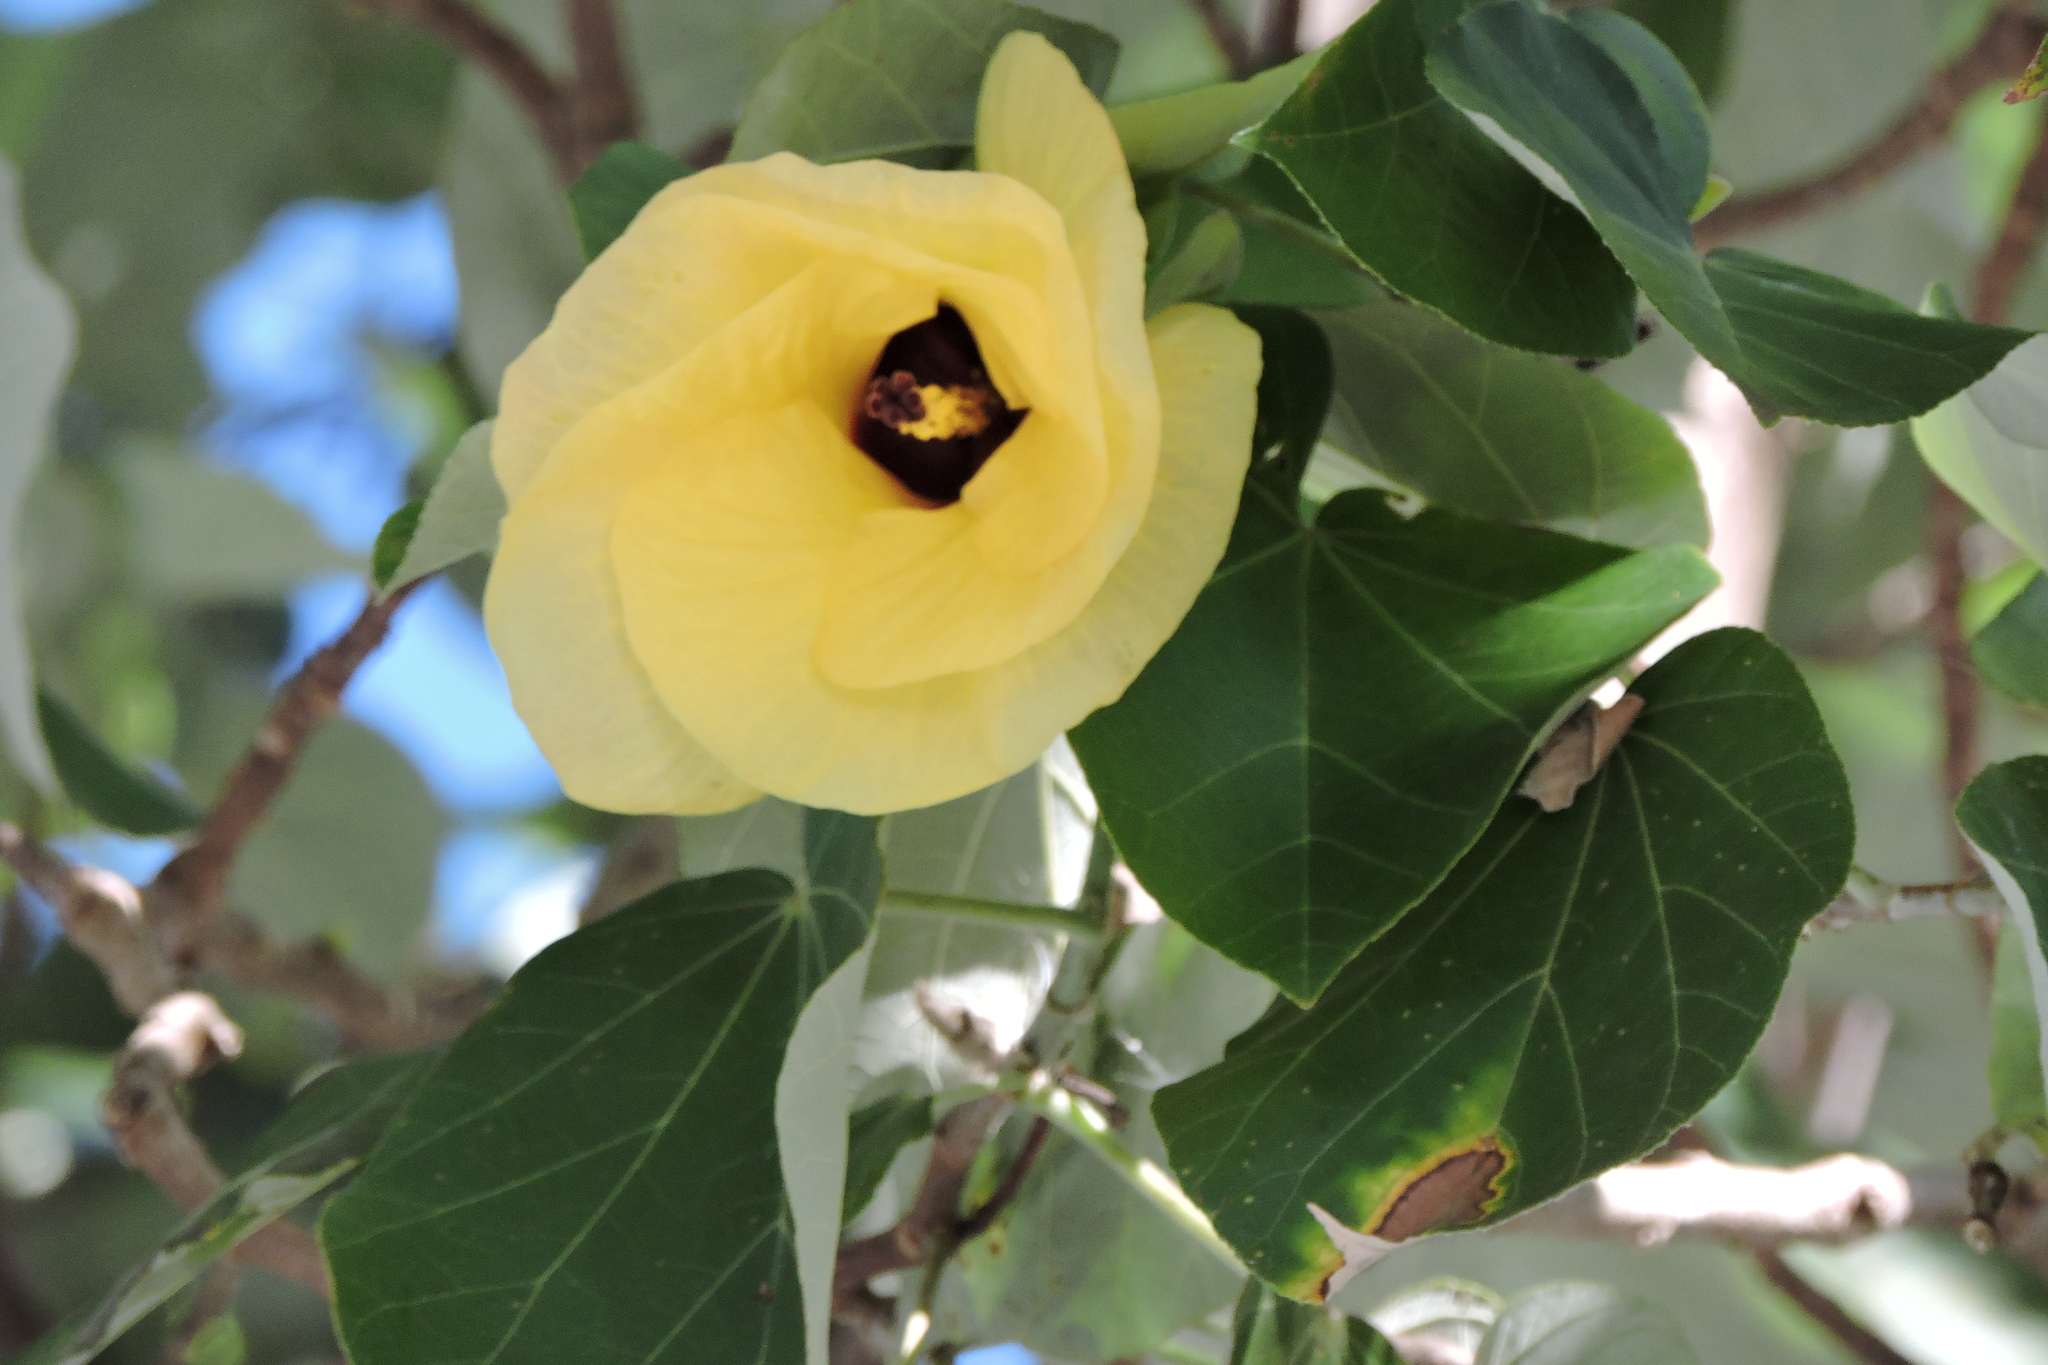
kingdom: Plantae
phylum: Tracheophyta
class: Magnoliopsida
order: Malvales
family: Malvaceae
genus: Talipariti
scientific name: Talipariti tiliaceum
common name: Sea hibiscus
